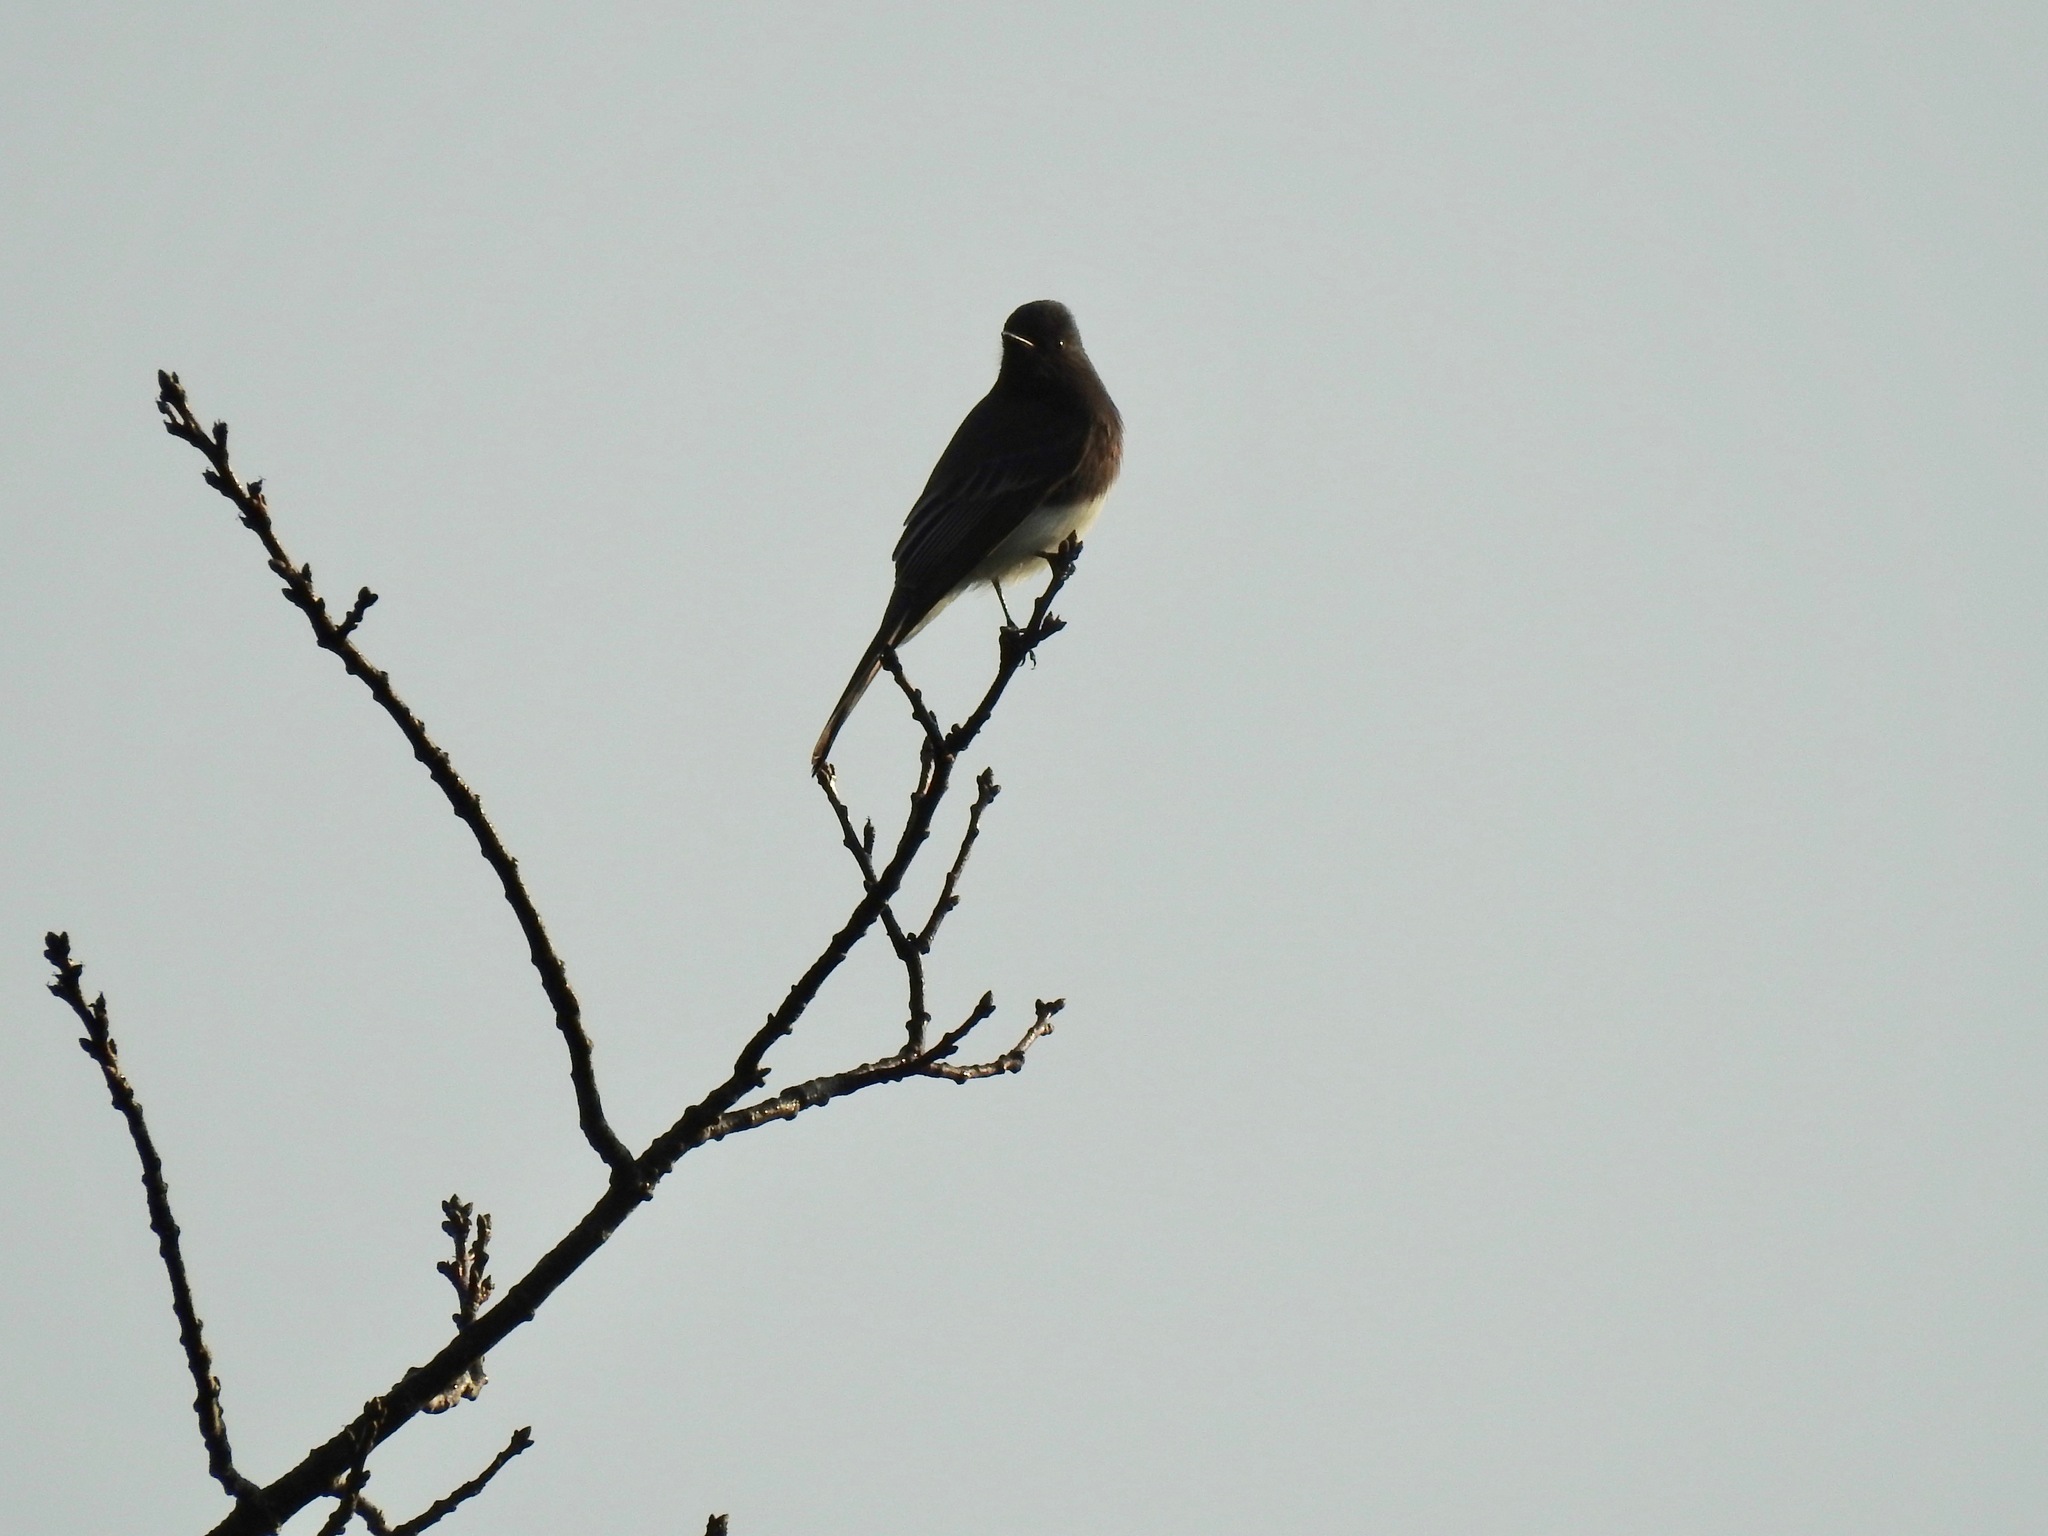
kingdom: Animalia
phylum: Chordata
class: Aves
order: Passeriformes
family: Tyrannidae
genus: Sayornis
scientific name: Sayornis nigricans
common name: Black phoebe
